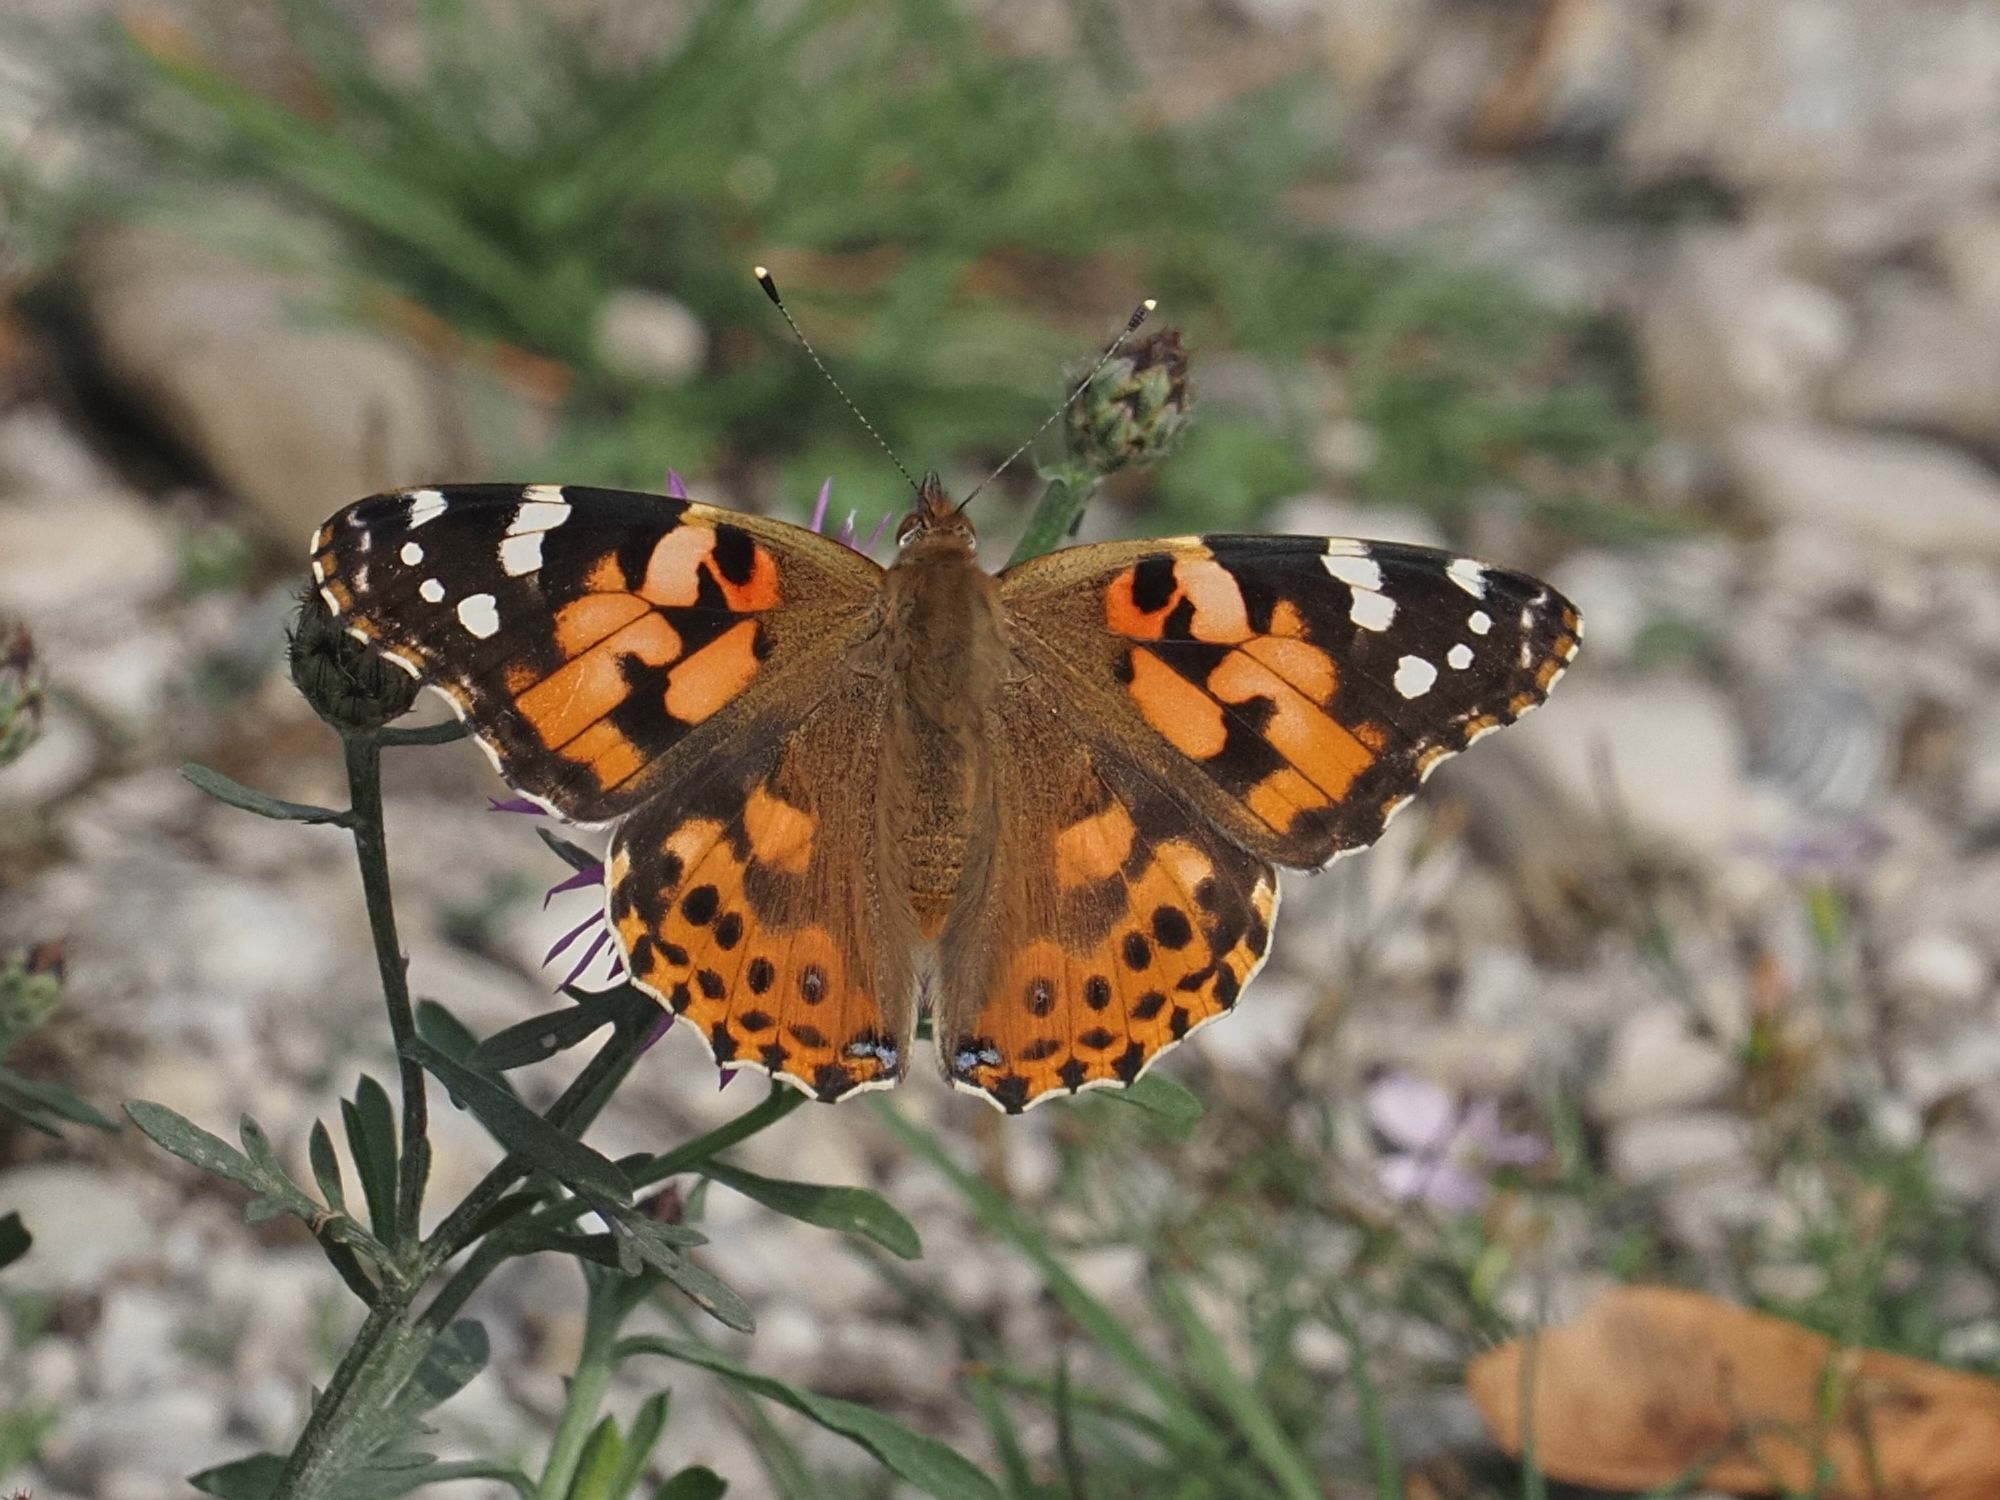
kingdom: Animalia
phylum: Arthropoda
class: Insecta
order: Lepidoptera
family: Nymphalidae
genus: Vanessa
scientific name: Vanessa cardui
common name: Painted lady
